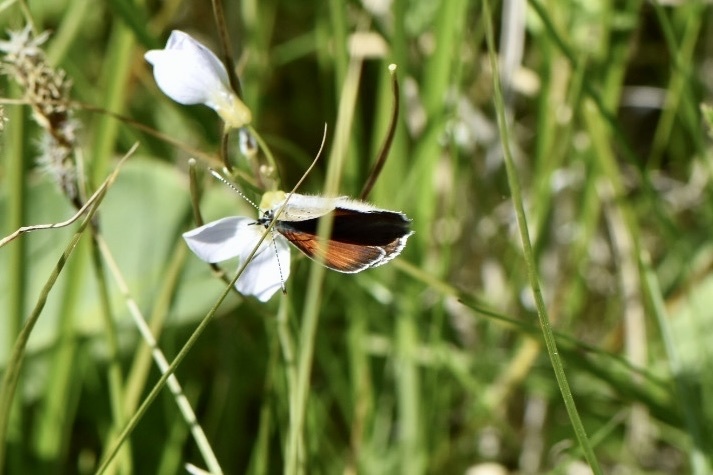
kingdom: Animalia
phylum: Arthropoda
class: Insecta
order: Lepidoptera
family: Lycaenidae
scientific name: Lycaenidae
